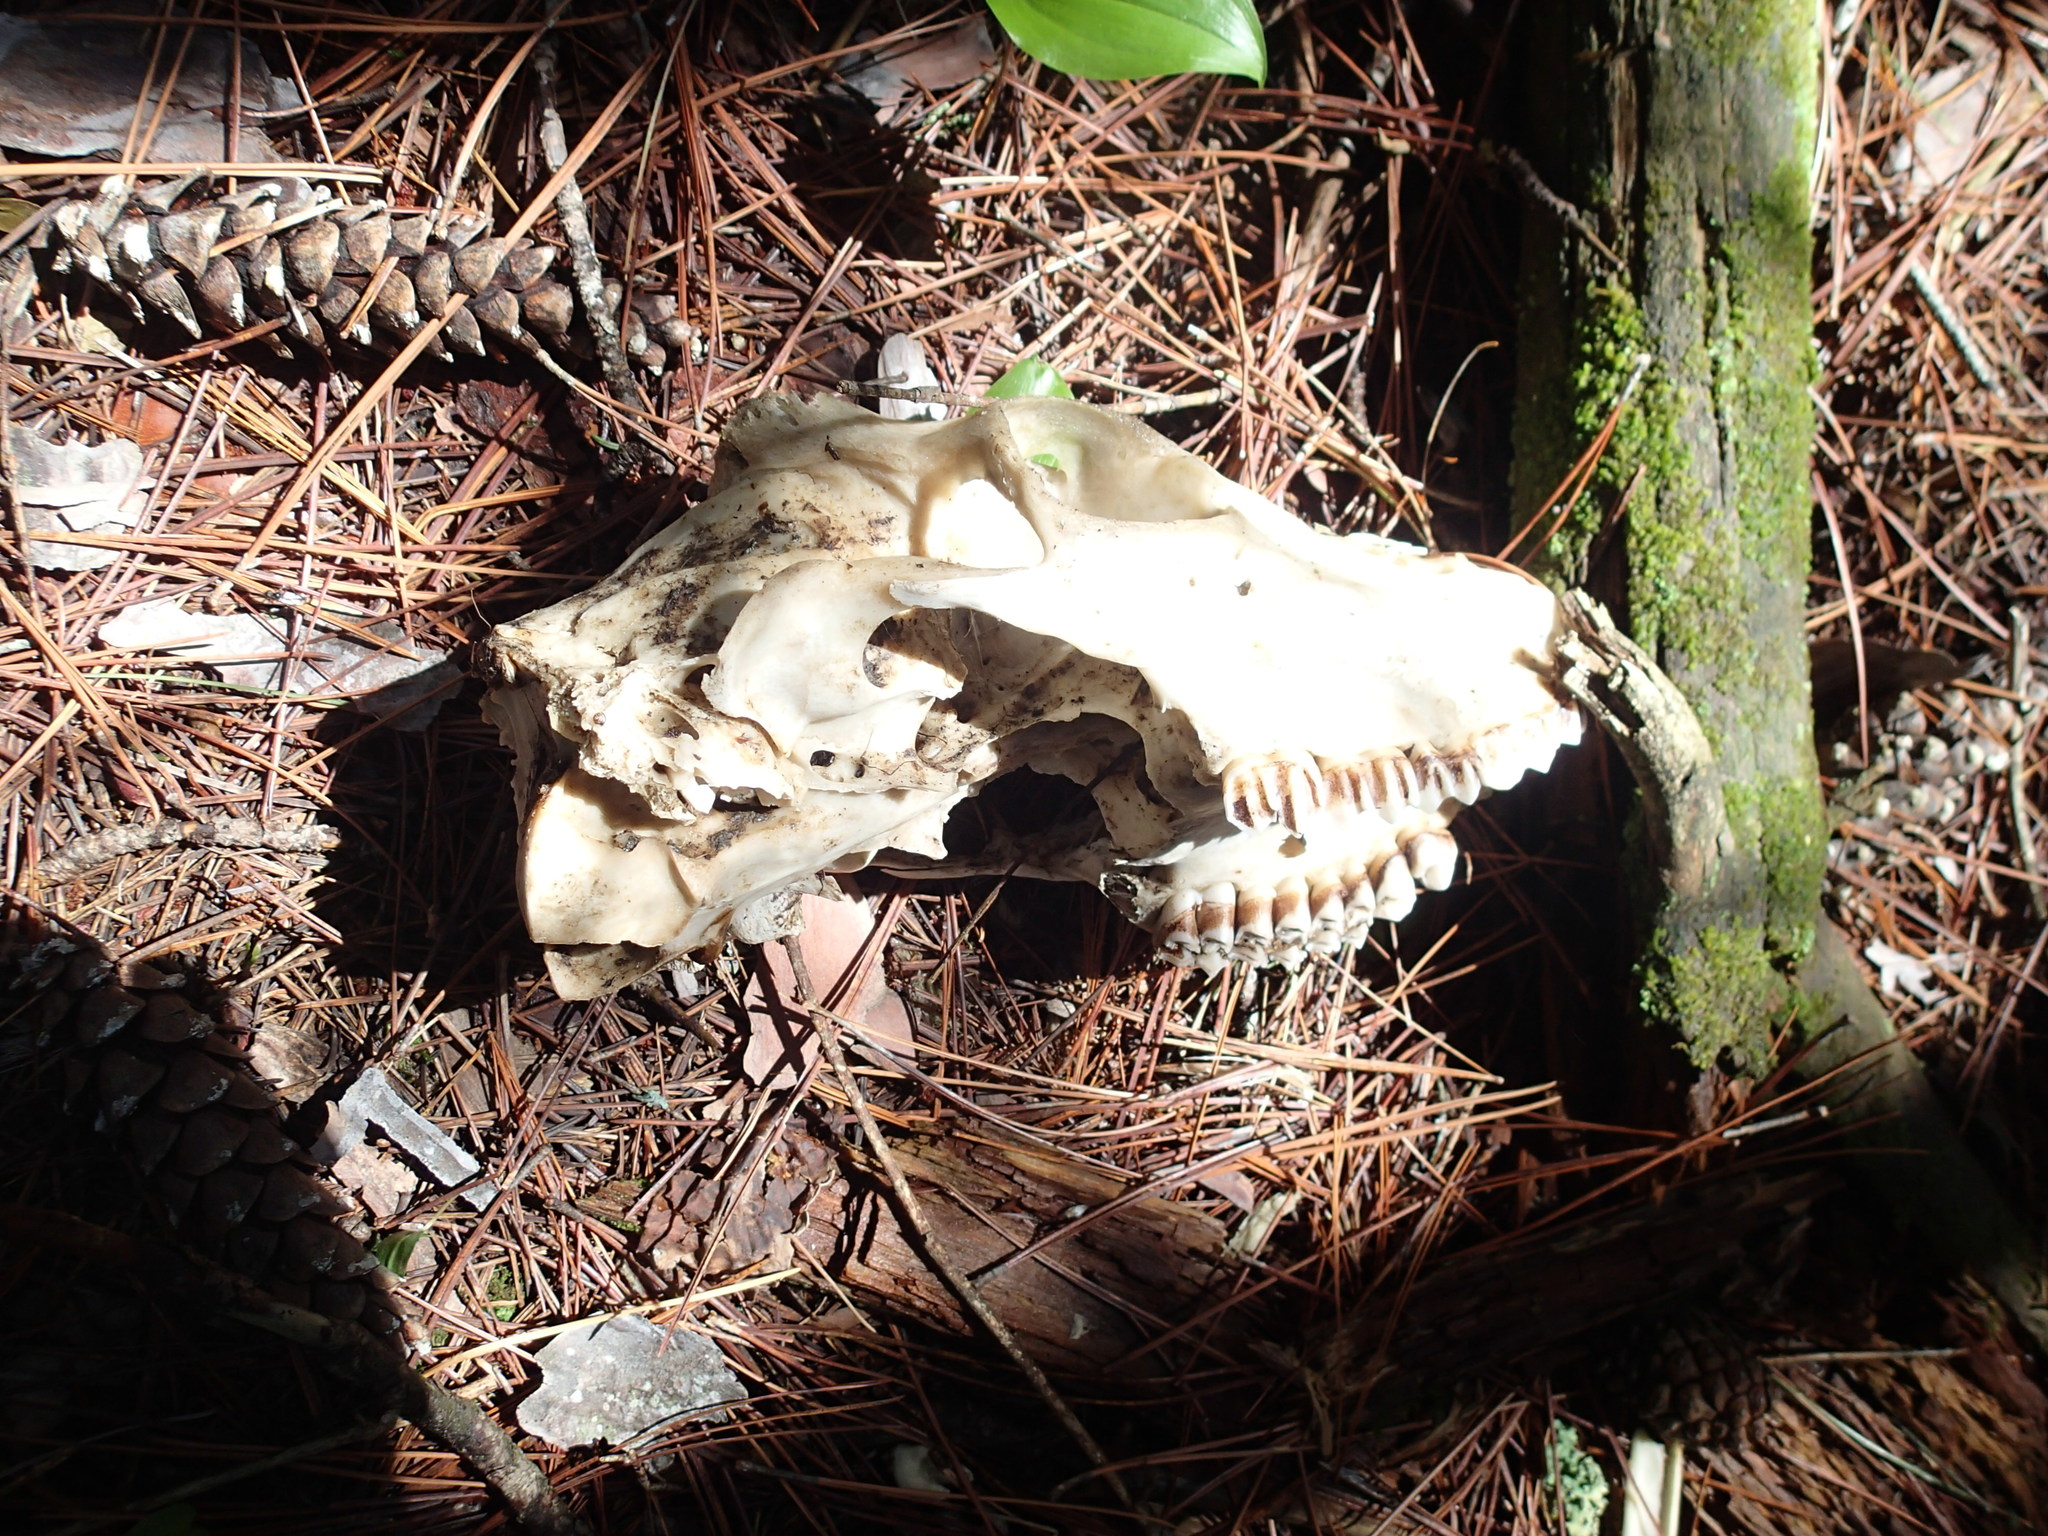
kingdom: Animalia
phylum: Chordata
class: Mammalia
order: Artiodactyla
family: Cervidae
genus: Odocoileus
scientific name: Odocoileus virginianus
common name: White-tailed deer
